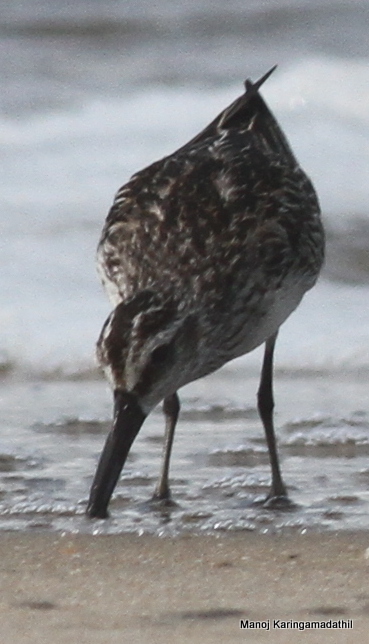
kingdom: Animalia
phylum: Chordata
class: Aves
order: Charadriiformes
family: Scolopacidae
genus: Calidris
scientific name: Calidris falcinellus
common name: Broad-billed sandpiper
